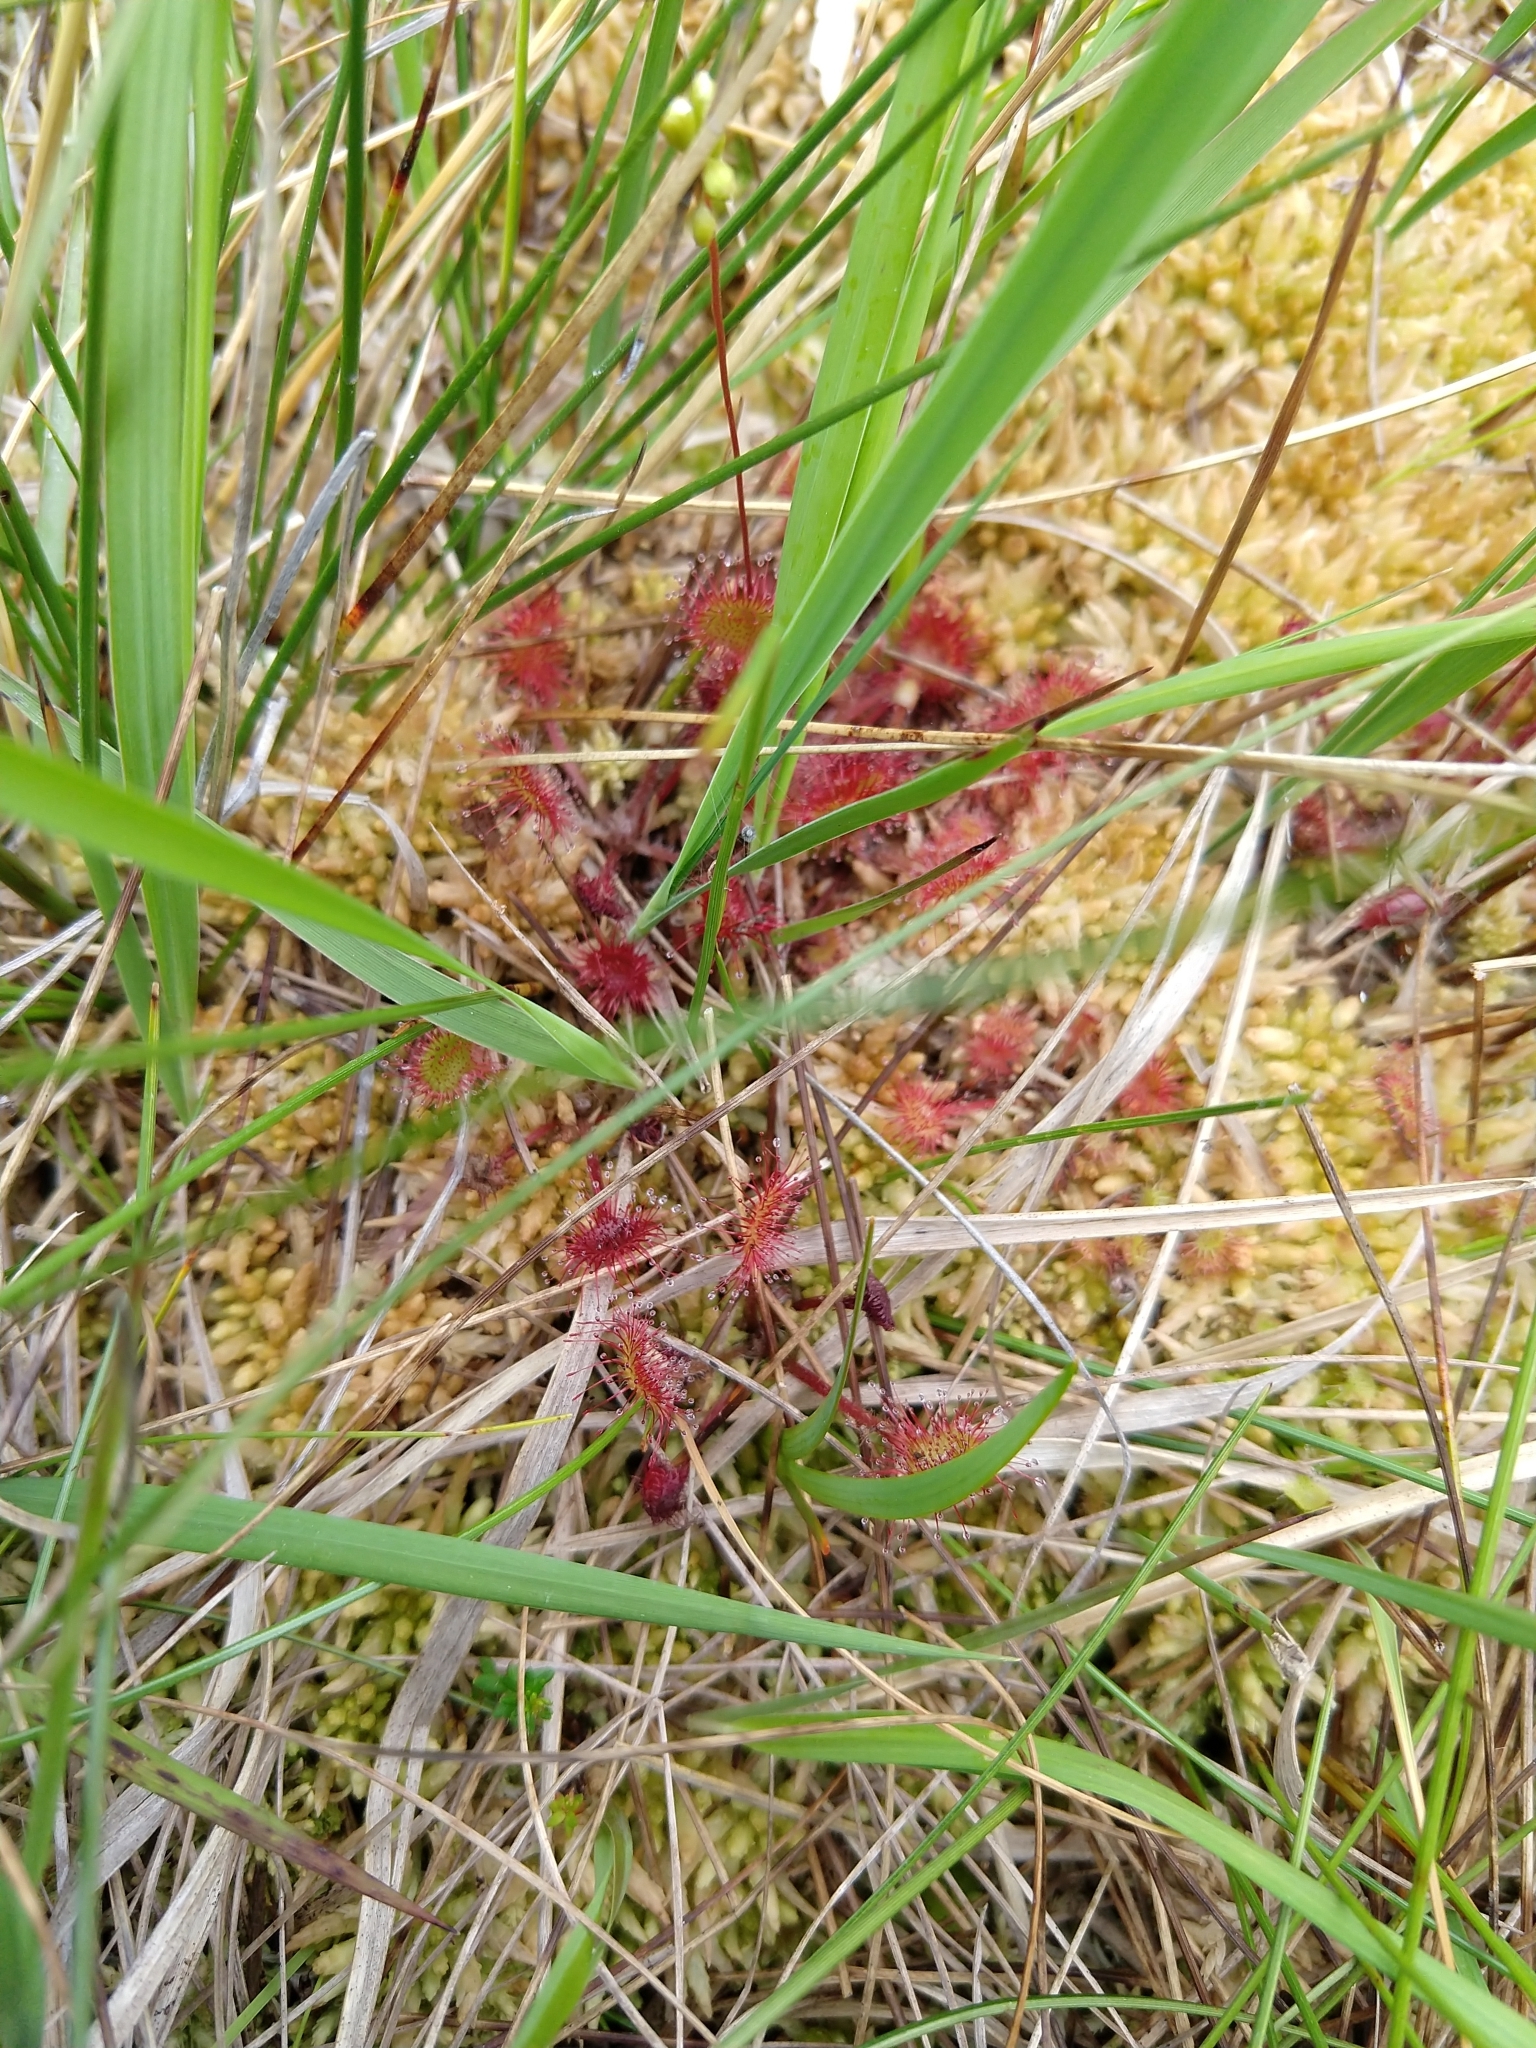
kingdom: Plantae
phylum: Tracheophyta
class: Magnoliopsida
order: Caryophyllales
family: Droseraceae
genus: Drosera
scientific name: Drosera rotundifolia
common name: Round-leaved sundew
